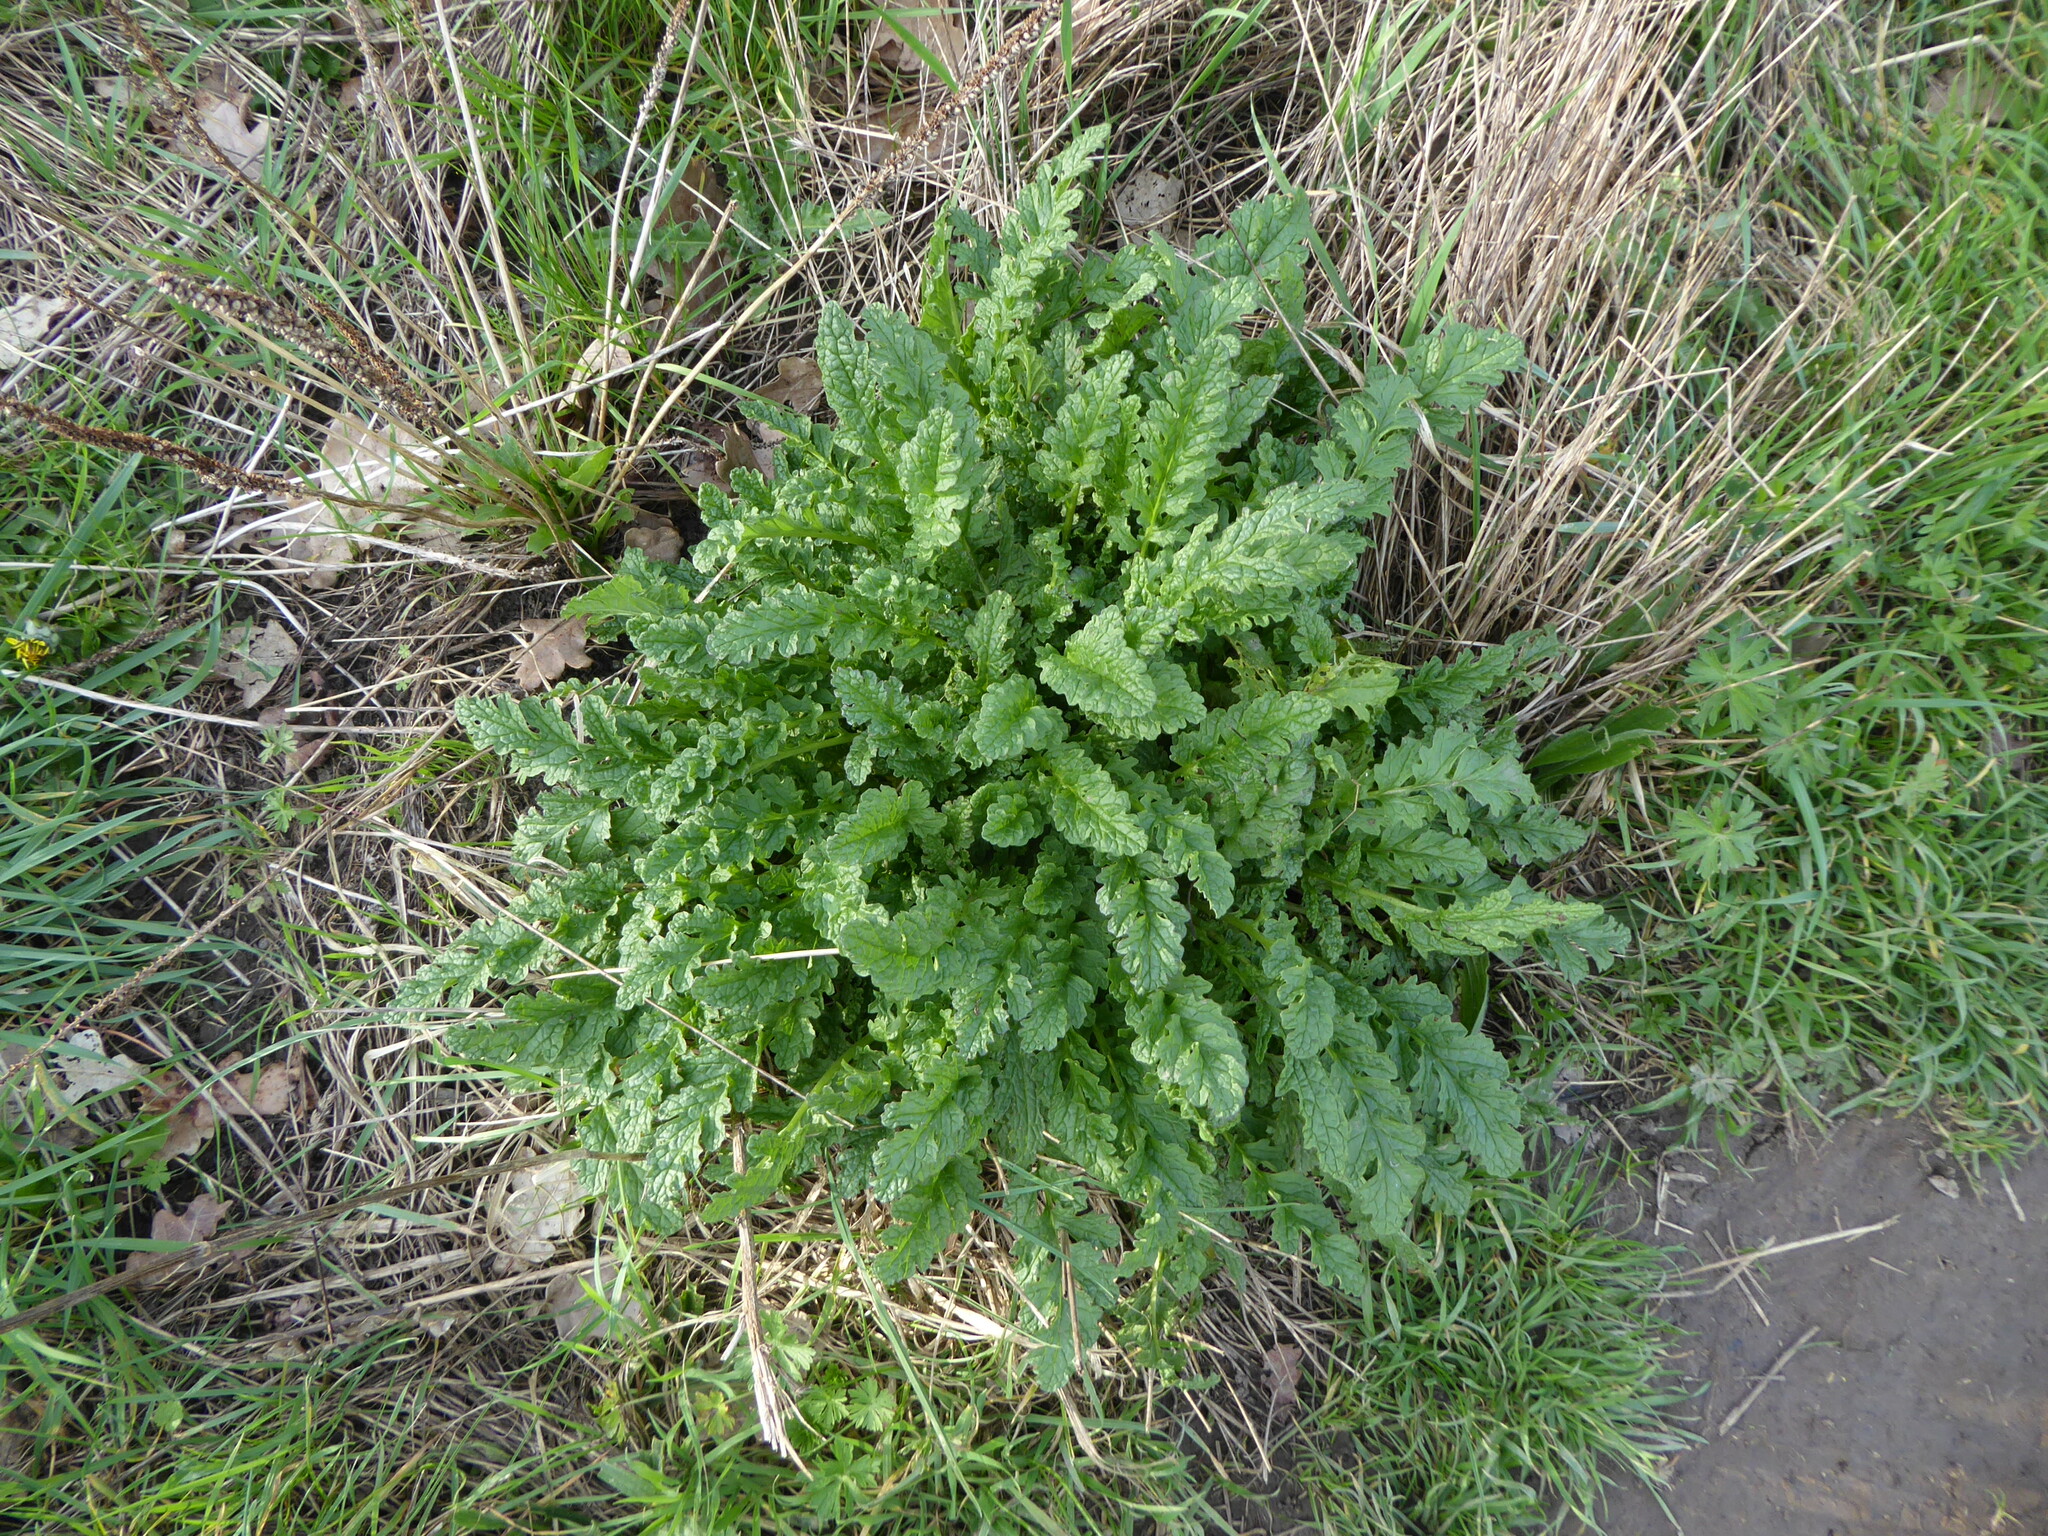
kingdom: Plantae
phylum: Tracheophyta
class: Magnoliopsida
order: Asterales
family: Asteraceae
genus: Jacobaea
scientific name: Jacobaea vulgaris
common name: Stinking willie
